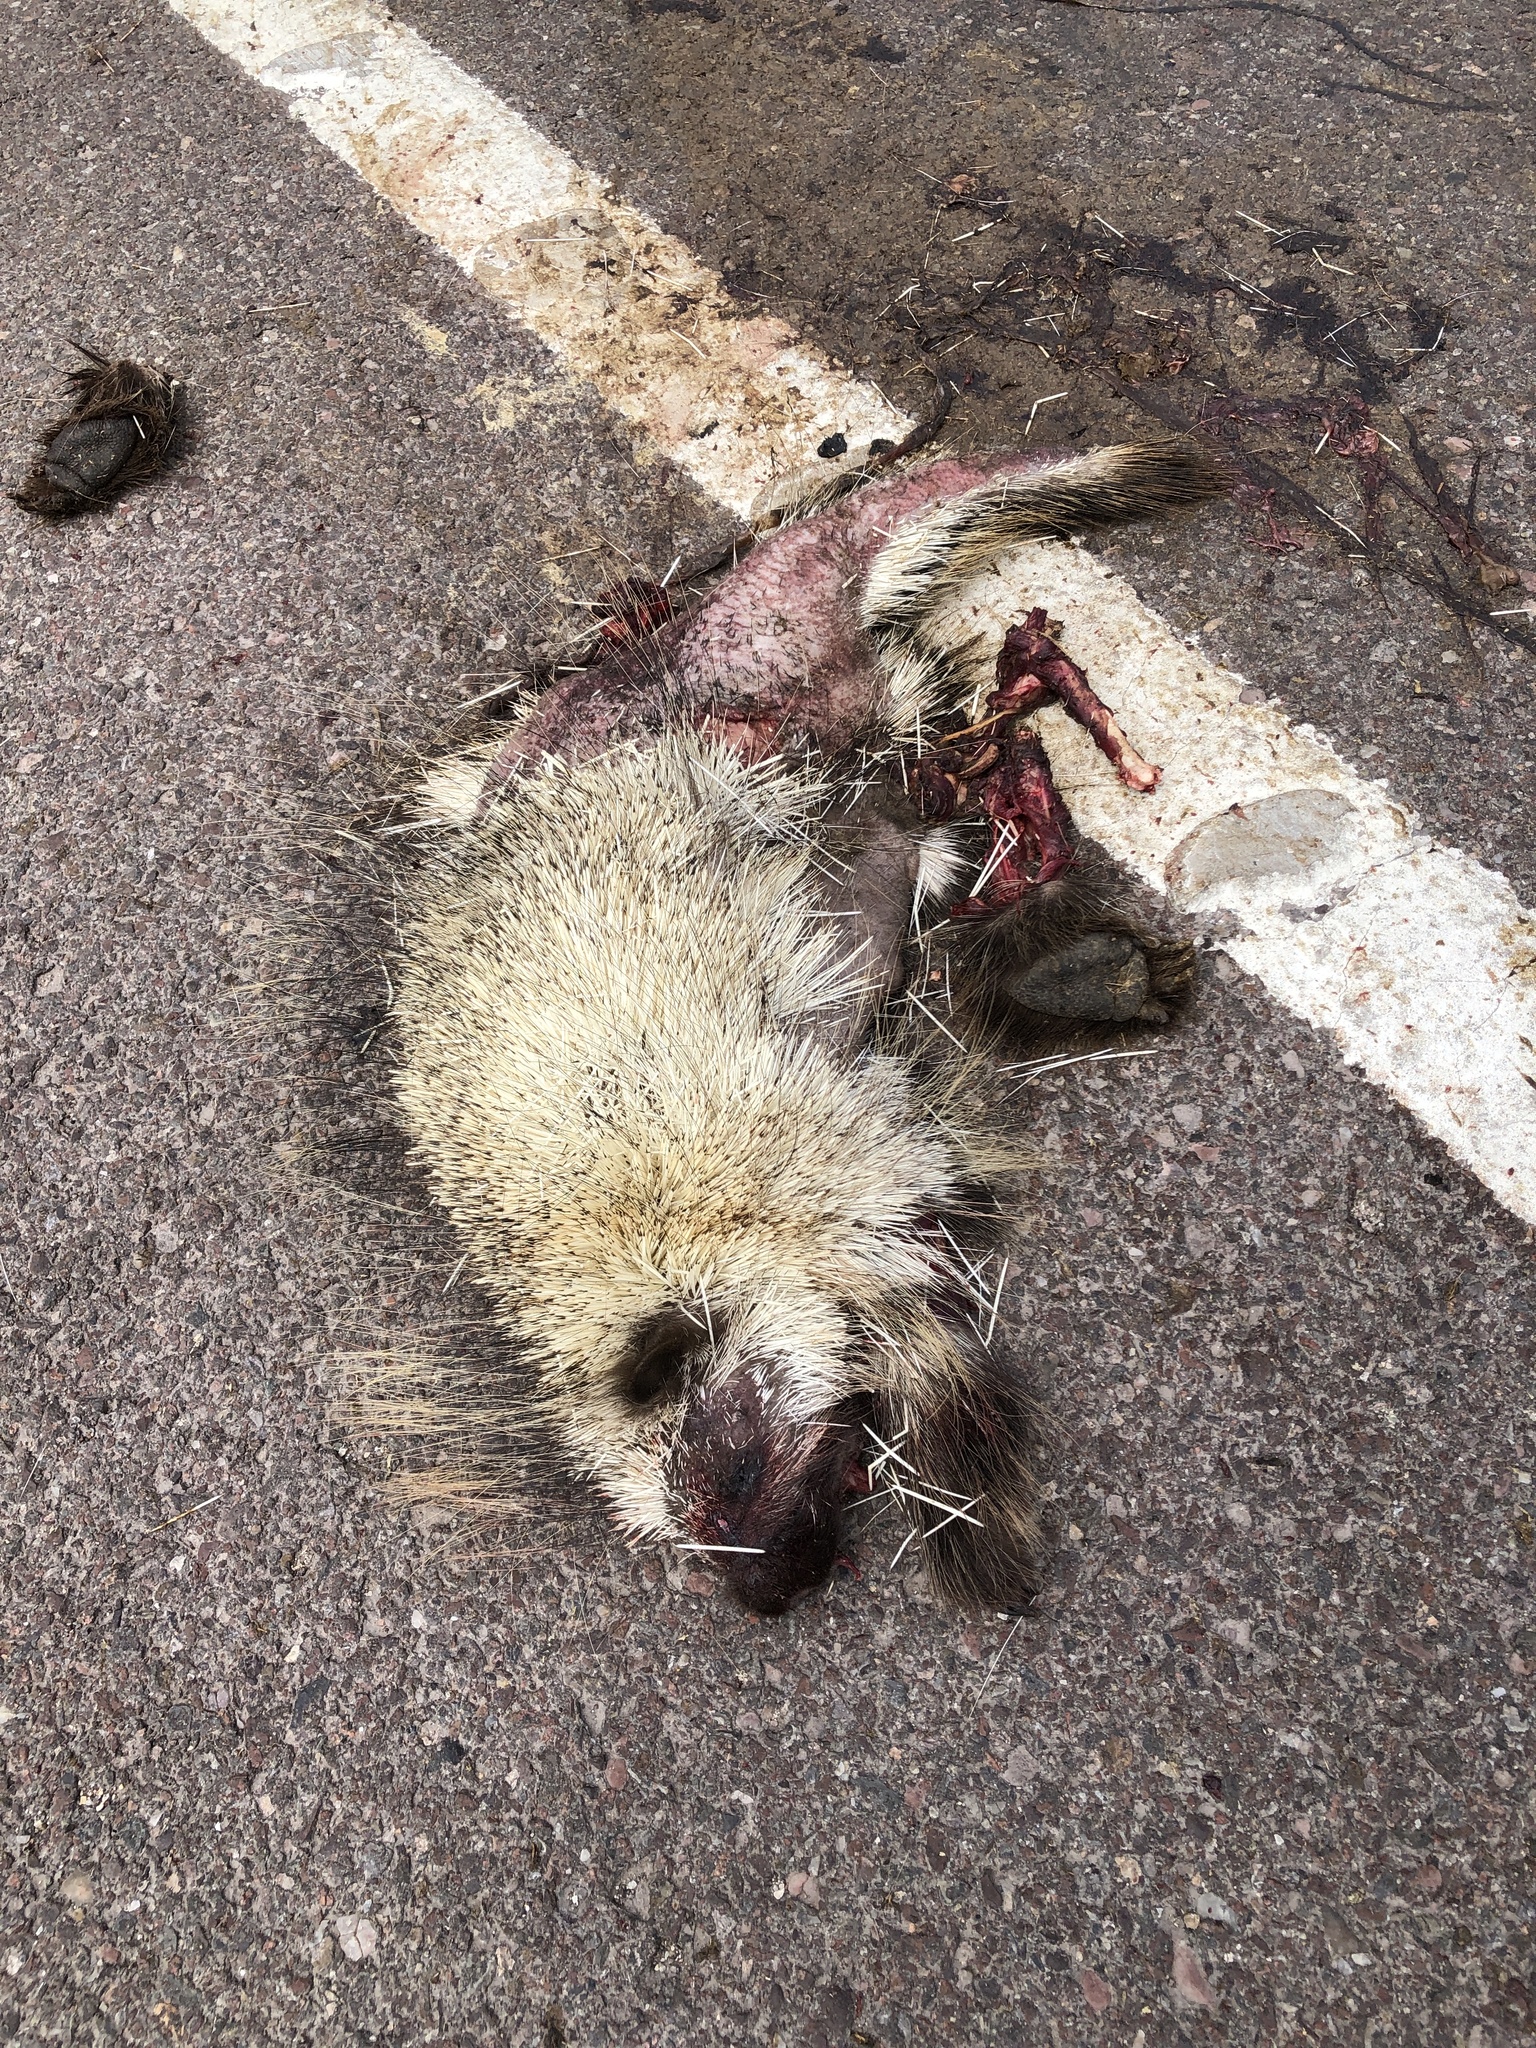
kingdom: Animalia
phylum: Chordata
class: Mammalia
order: Rodentia
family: Erethizontidae
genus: Erethizon
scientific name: Erethizon dorsatus
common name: North american porcupine
